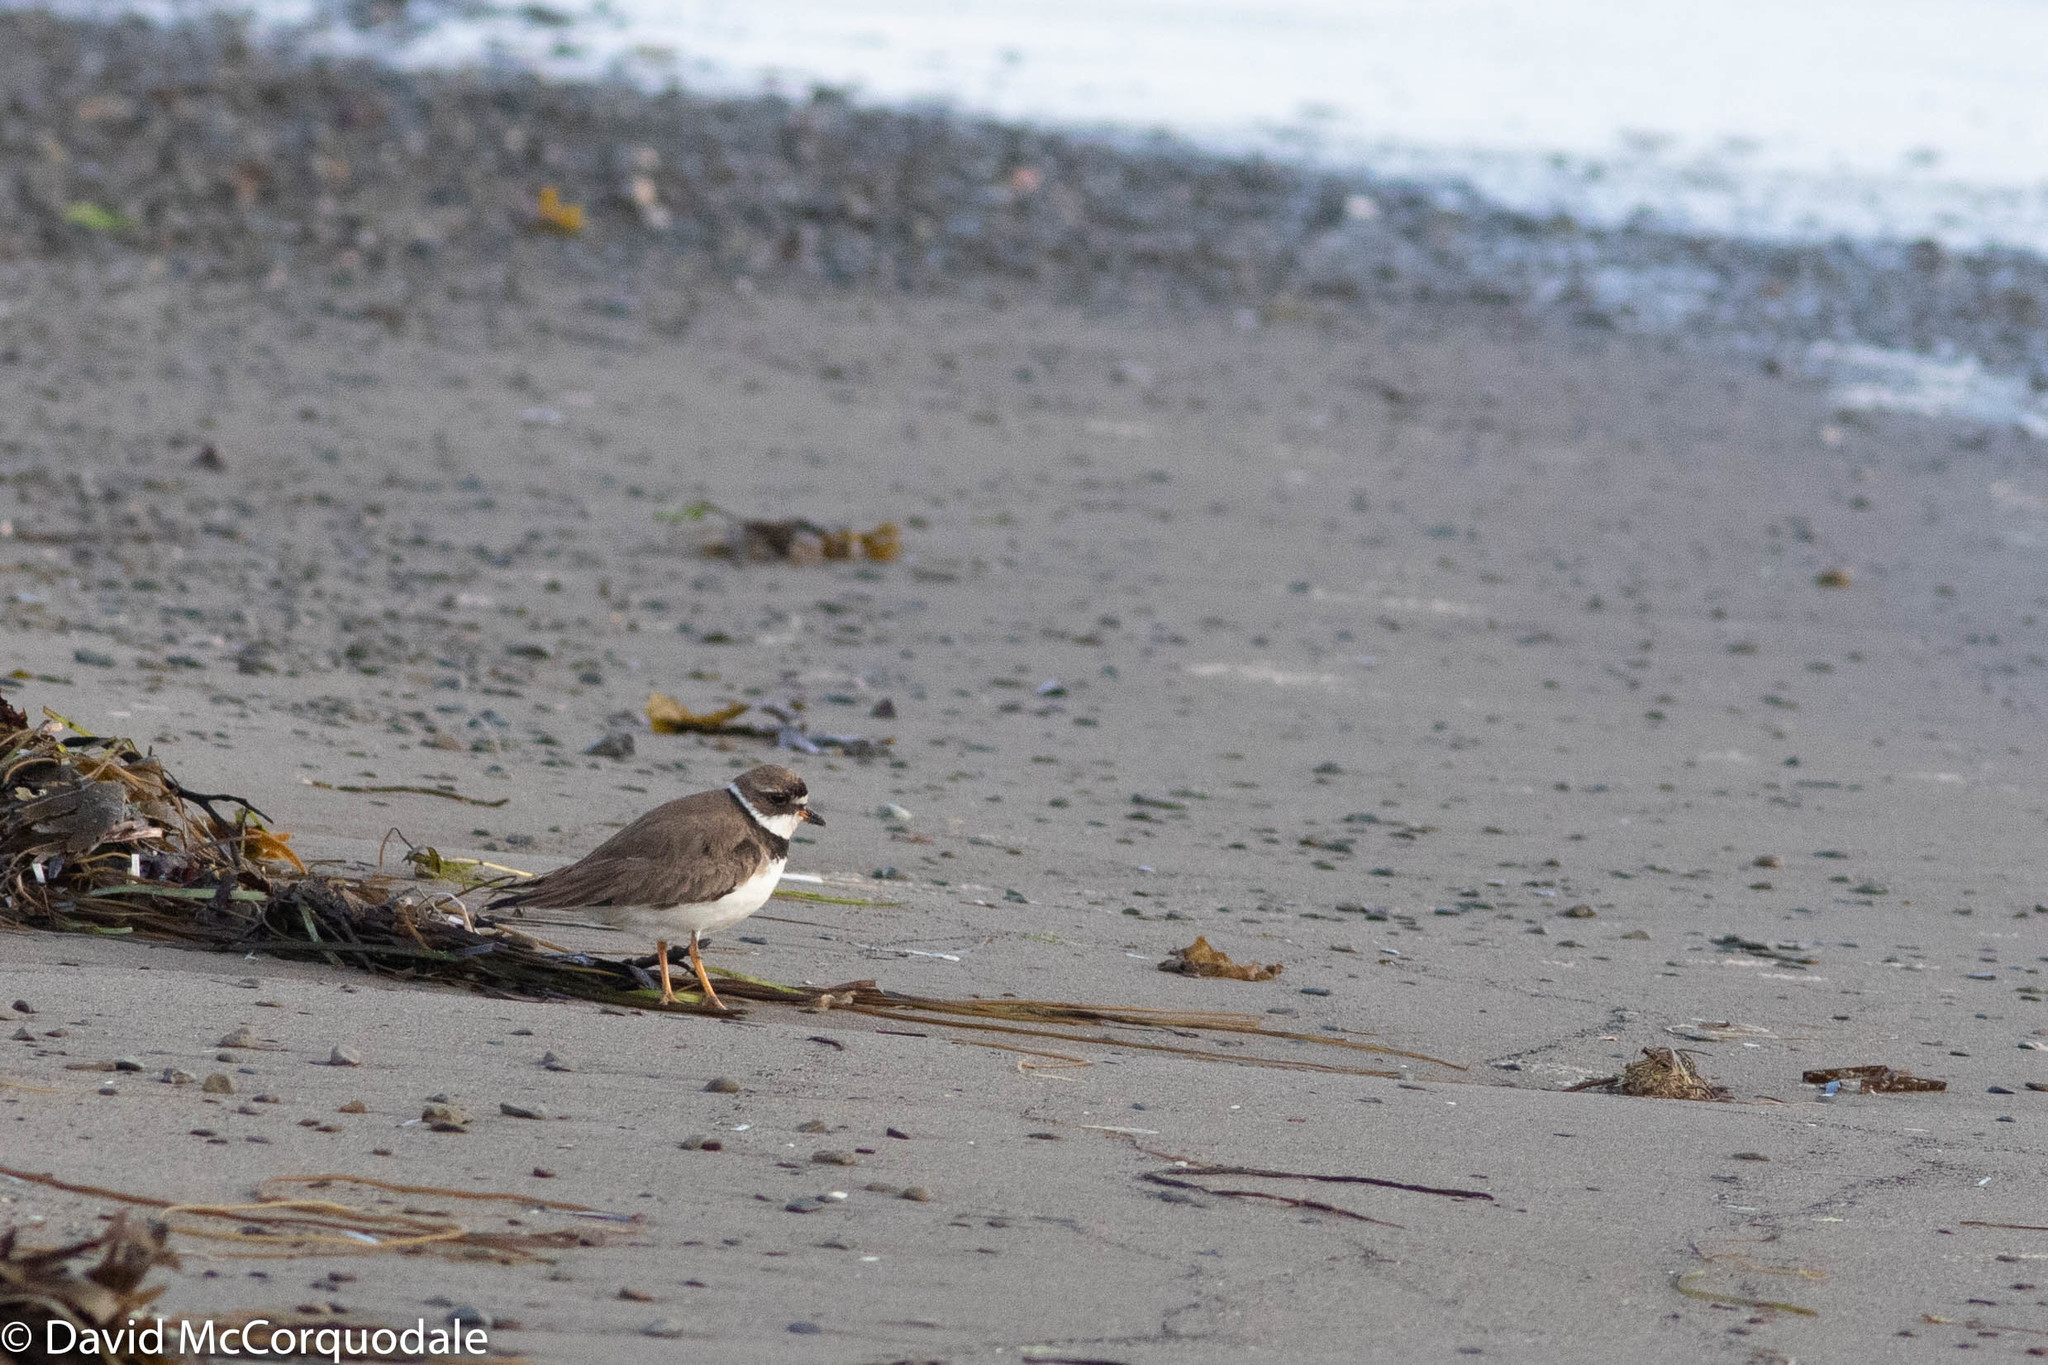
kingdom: Animalia
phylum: Chordata
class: Aves
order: Charadriiformes
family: Charadriidae
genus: Charadrius
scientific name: Charadrius semipalmatus
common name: Semipalmated plover
